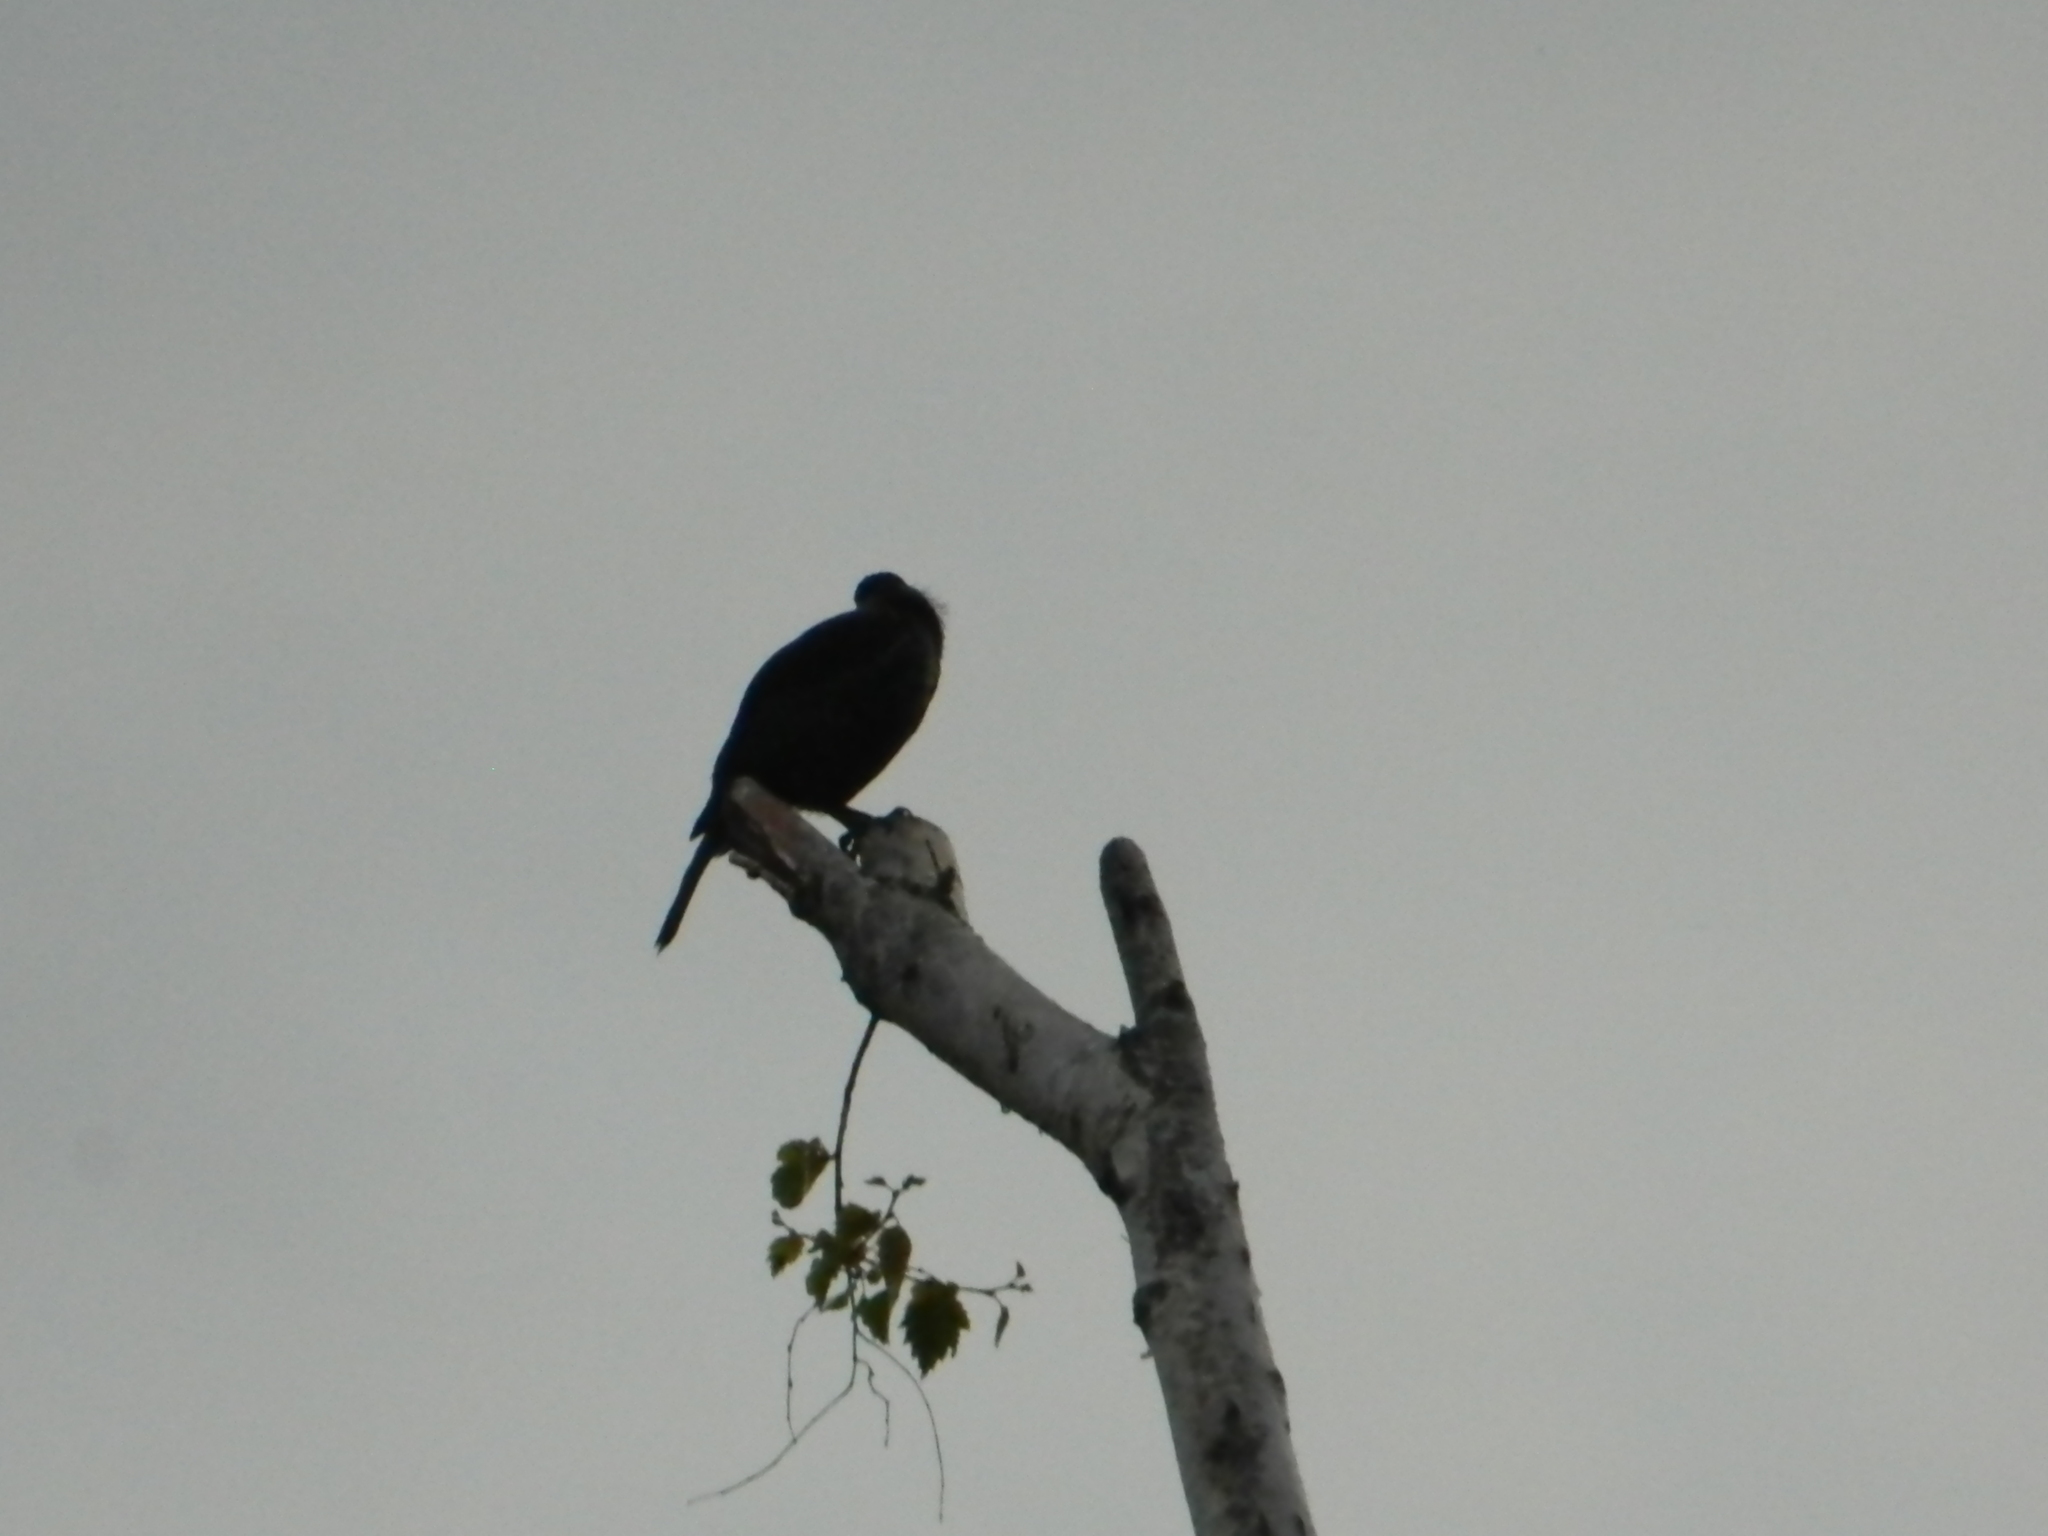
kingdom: Animalia
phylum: Chordata
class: Aves
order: Passeriformes
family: Meliphagidae
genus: Prosthemadera
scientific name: Prosthemadera novaeseelandiae
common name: Tui
